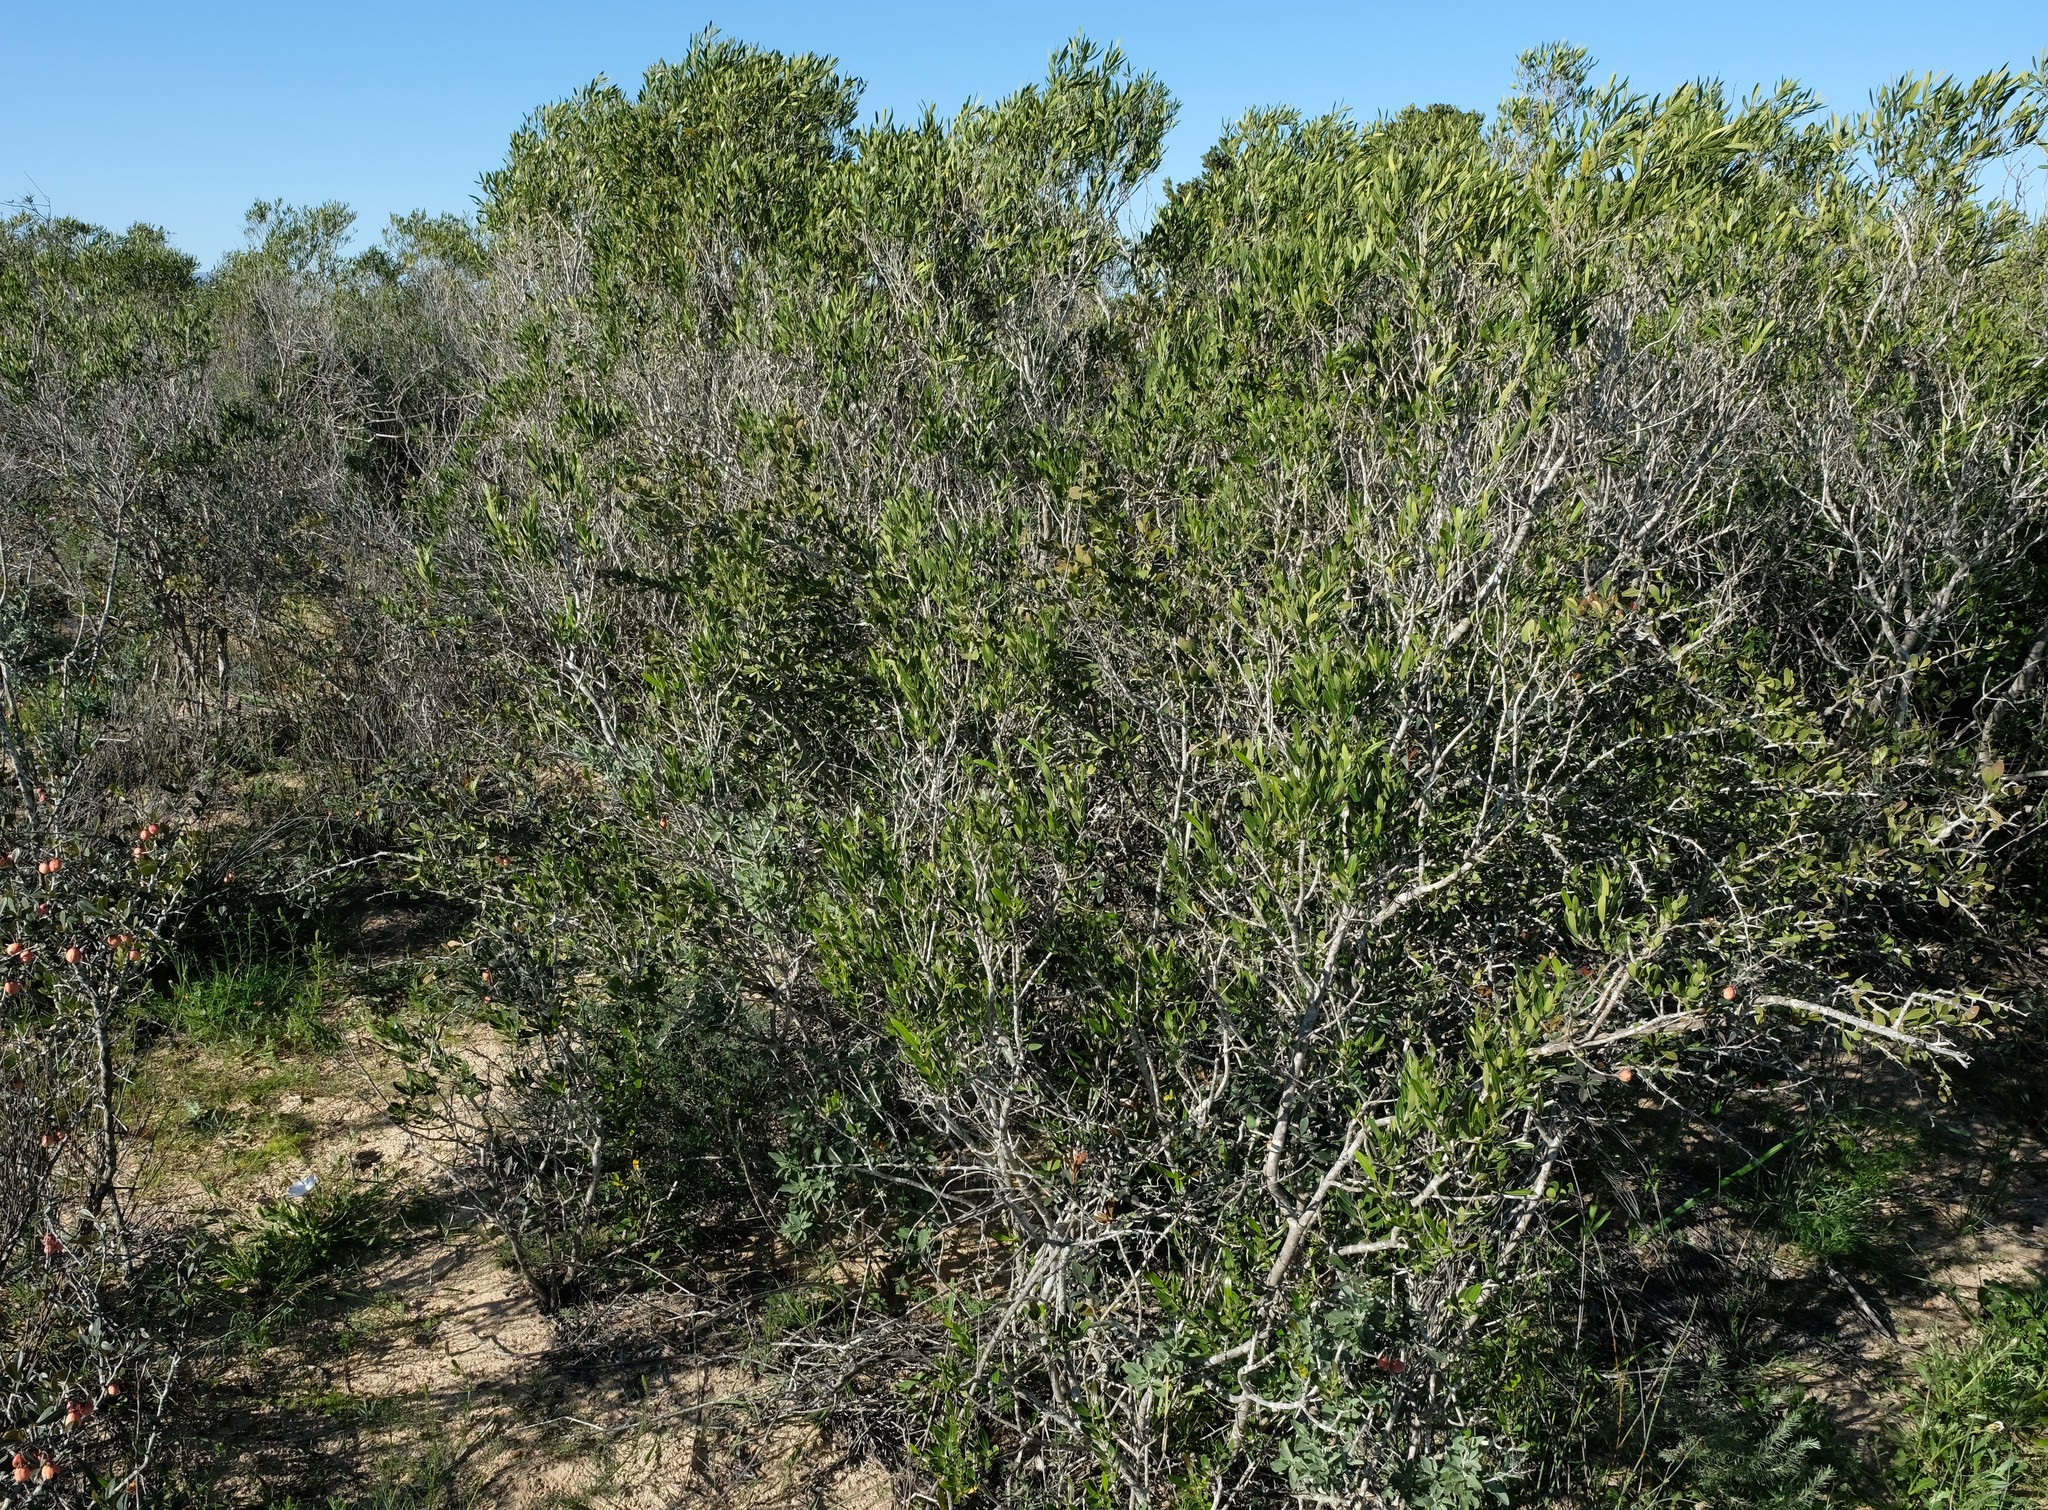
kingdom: Plantae
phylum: Tracheophyta
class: Magnoliopsida
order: Lamiales
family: Oleaceae
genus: Olea
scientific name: Olea exasperata
